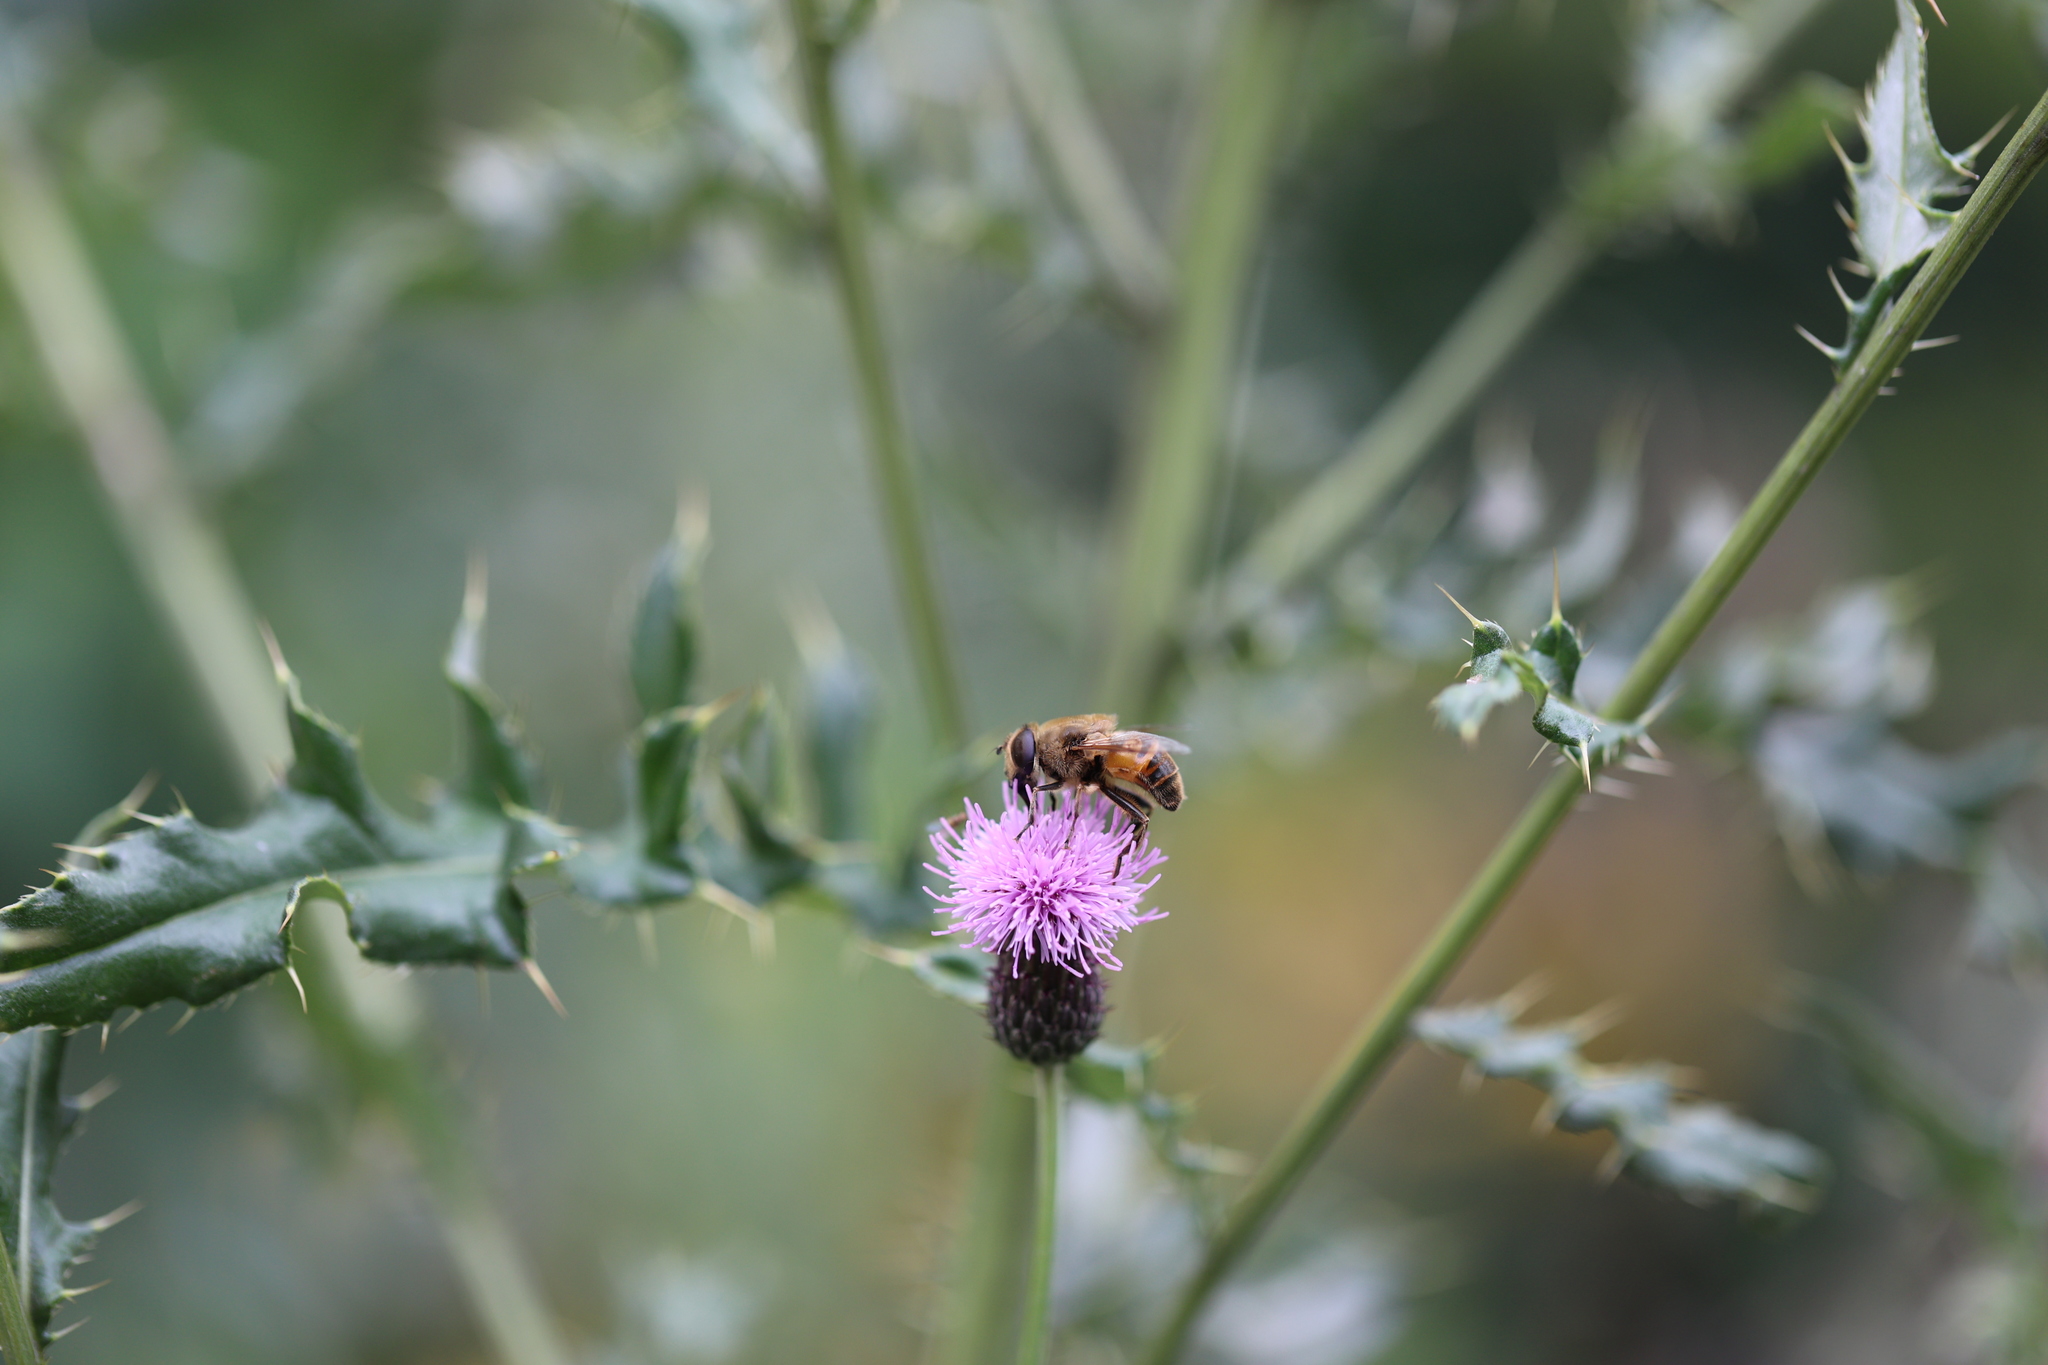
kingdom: Animalia
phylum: Arthropoda
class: Insecta
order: Diptera
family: Syrphidae
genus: Eristalis
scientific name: Eristalis tenax
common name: Drone fly
